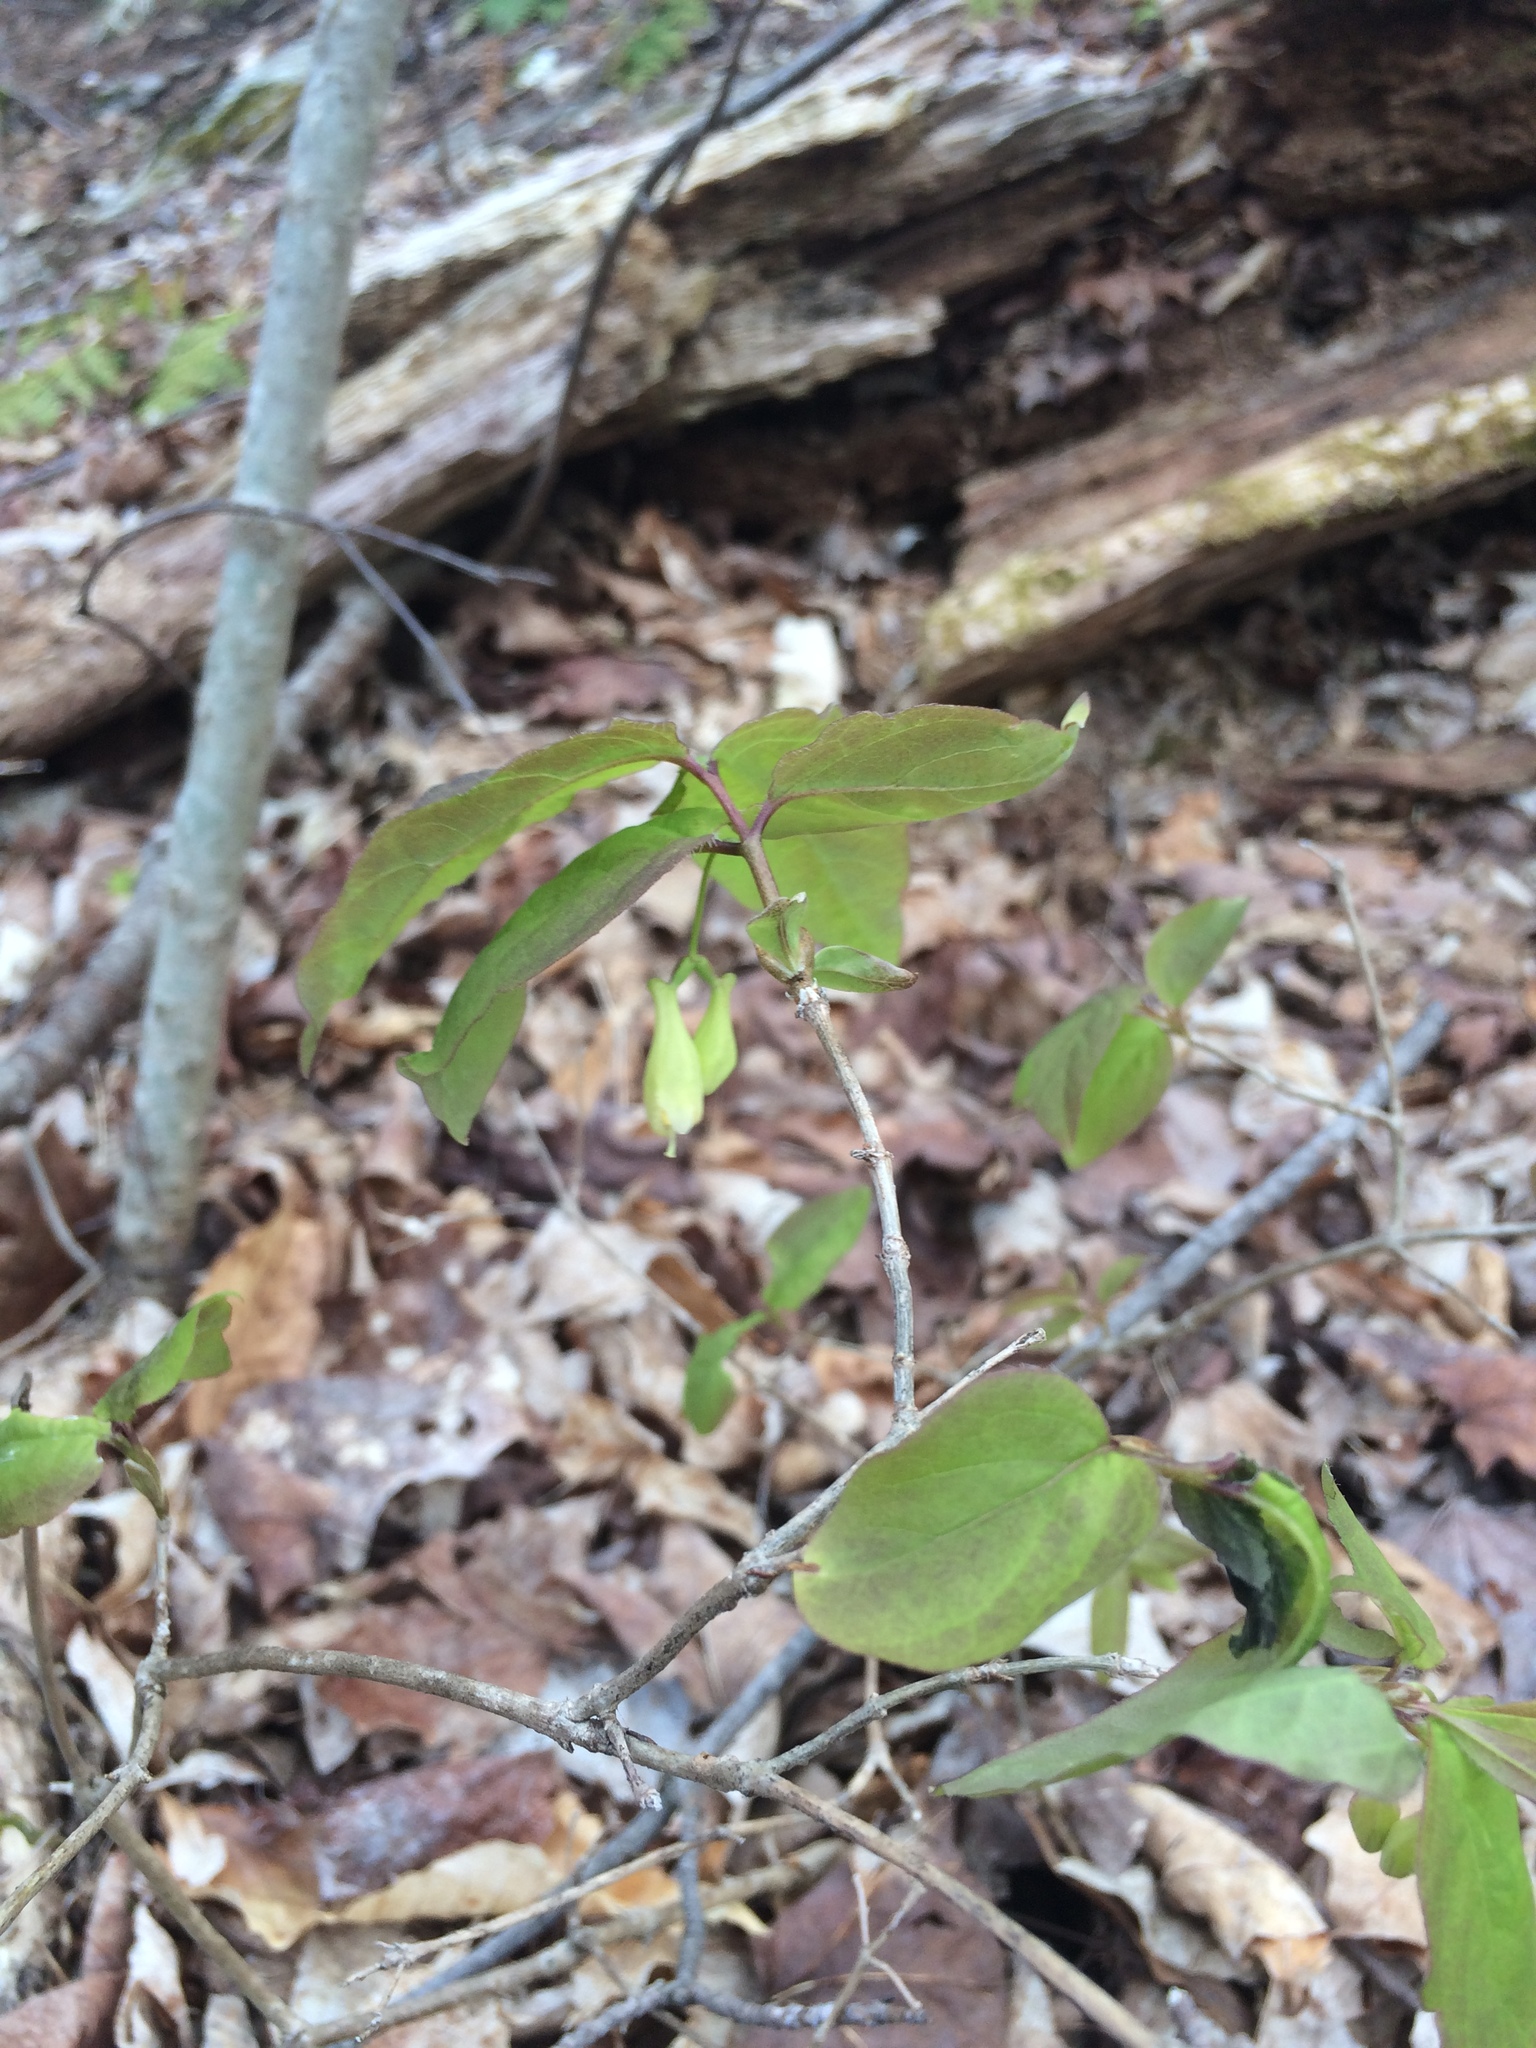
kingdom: Plantae
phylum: Tracheophyta
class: Magnoliopsida
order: Dipsacales
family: Caprifoliaceae
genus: Lonicera
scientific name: Lonicera canadensis
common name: American fly-honeysuckle
